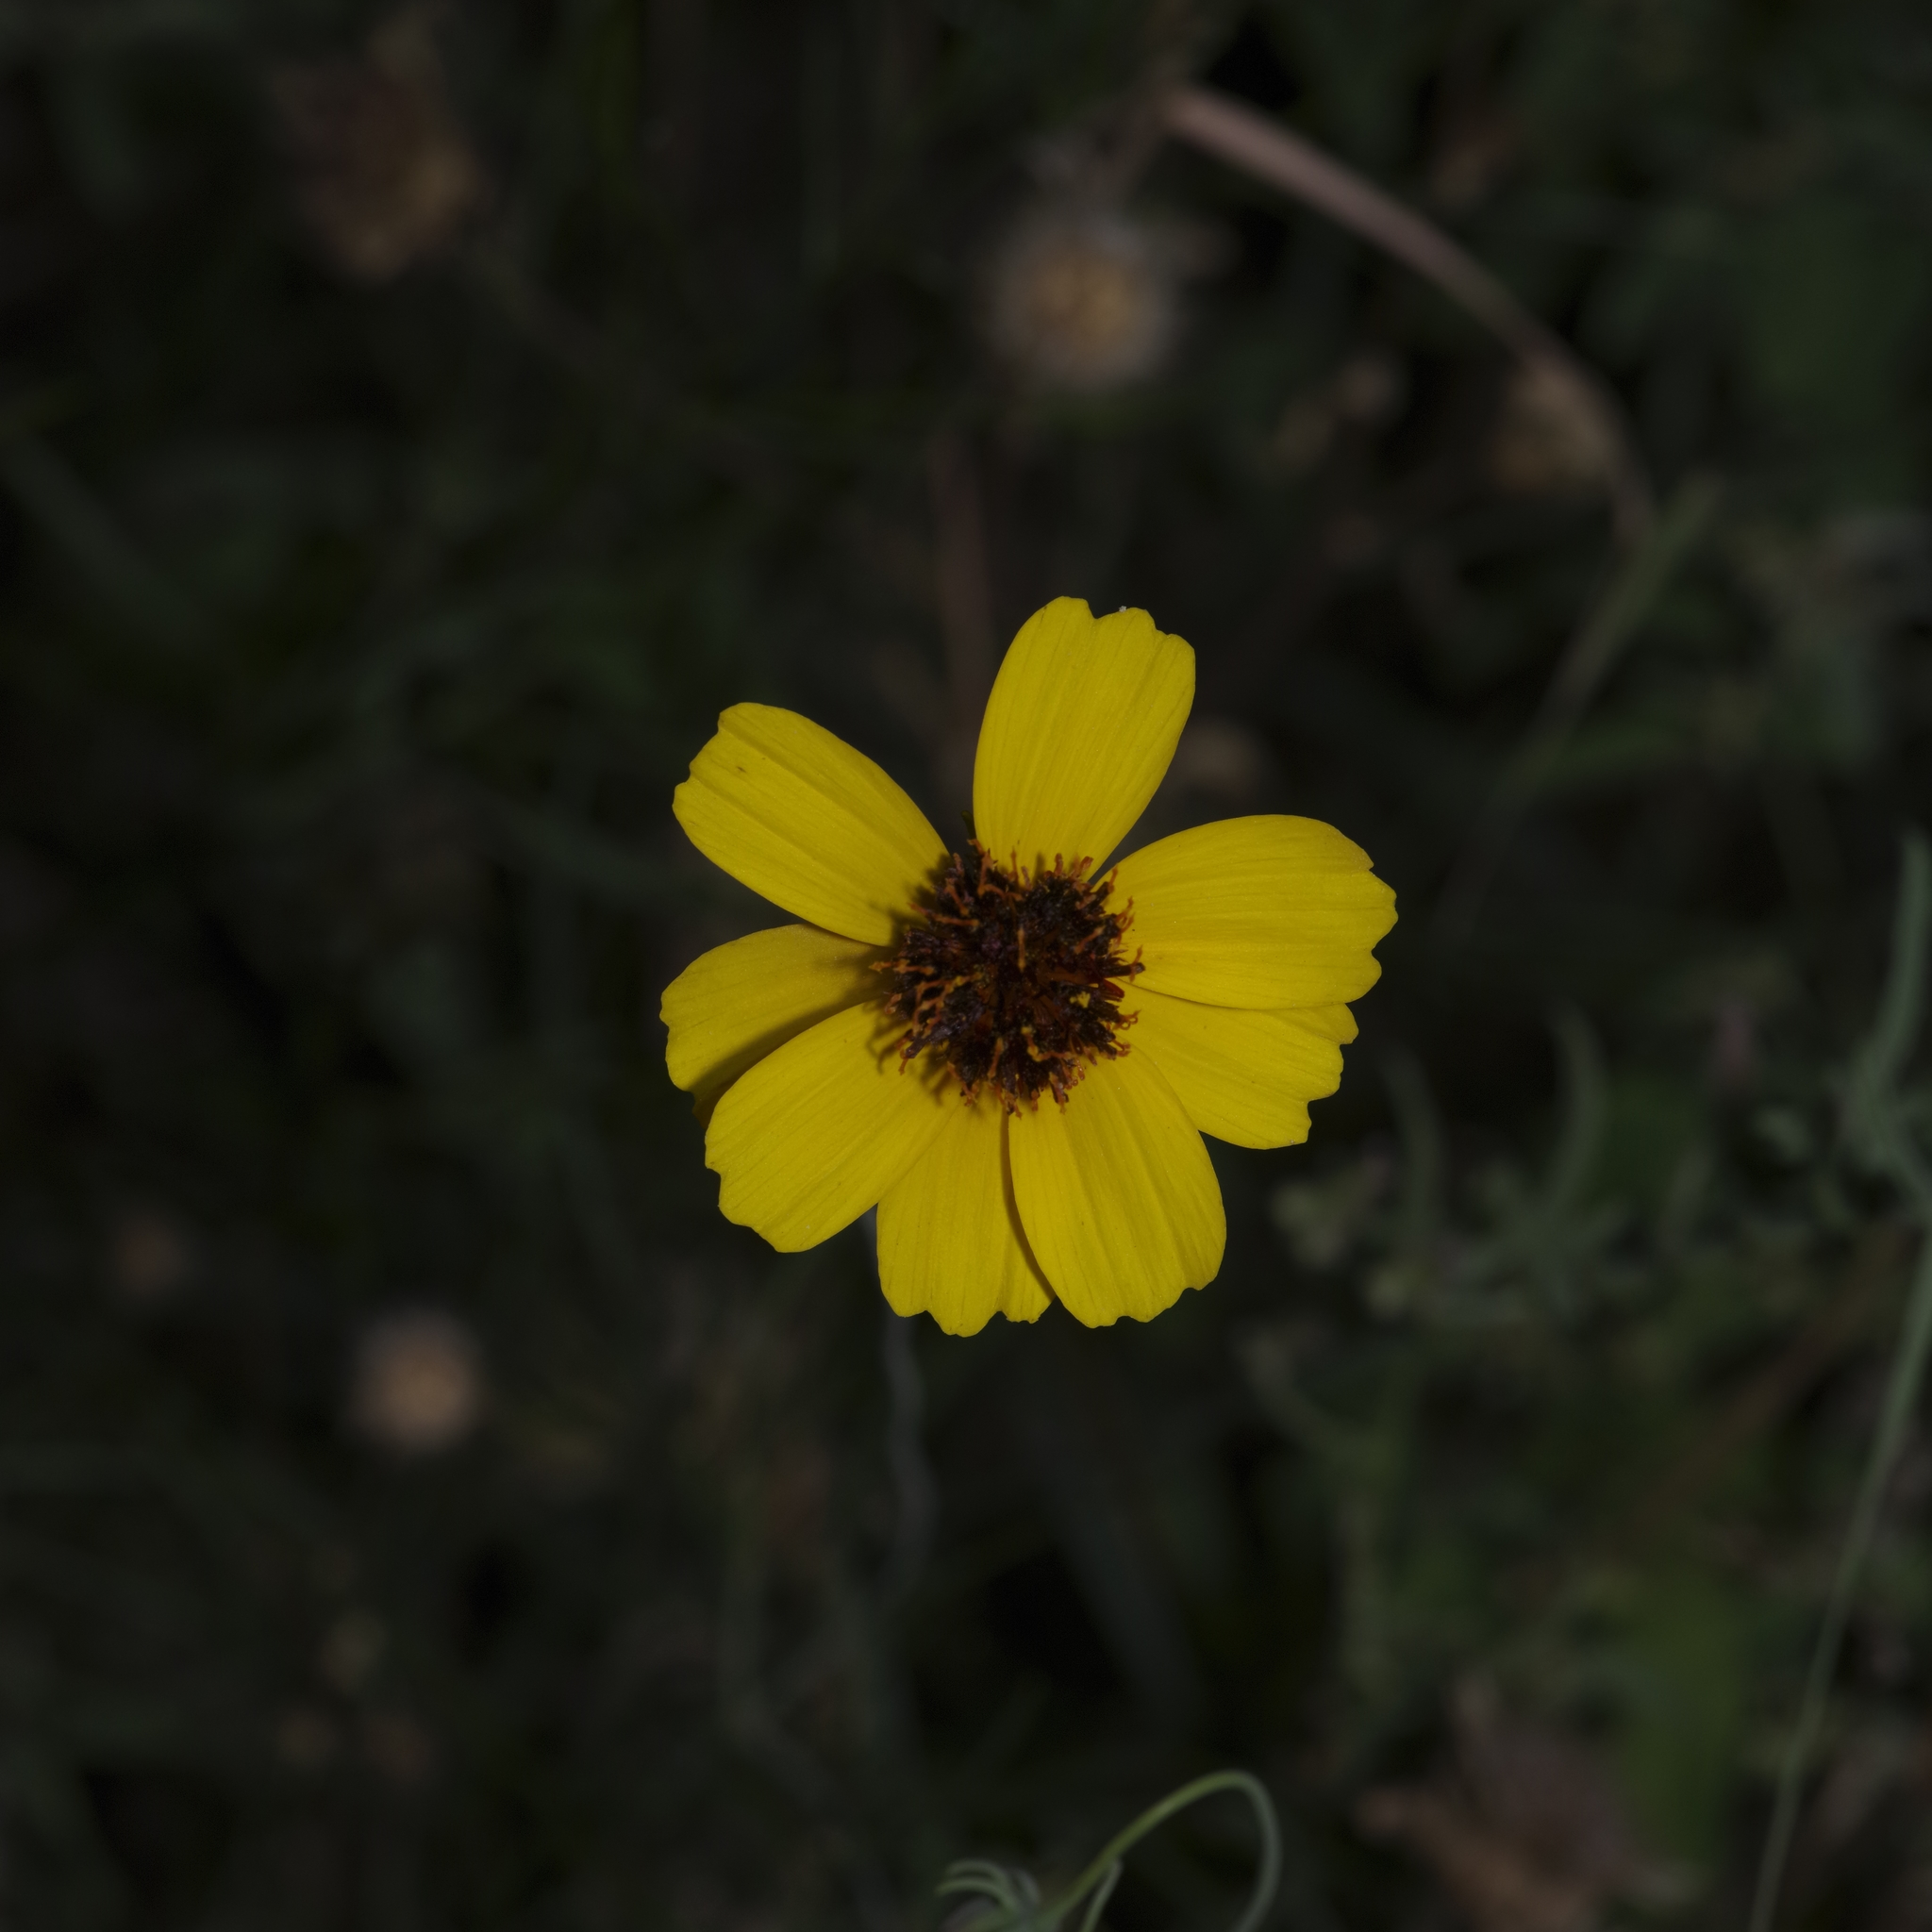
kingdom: Plantae
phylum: Tracheophyta
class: Magnoliopsida
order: Asterales
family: Asteraceae
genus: Thelesperma
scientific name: Thelesperma filifolium
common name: Stiff greenthread
